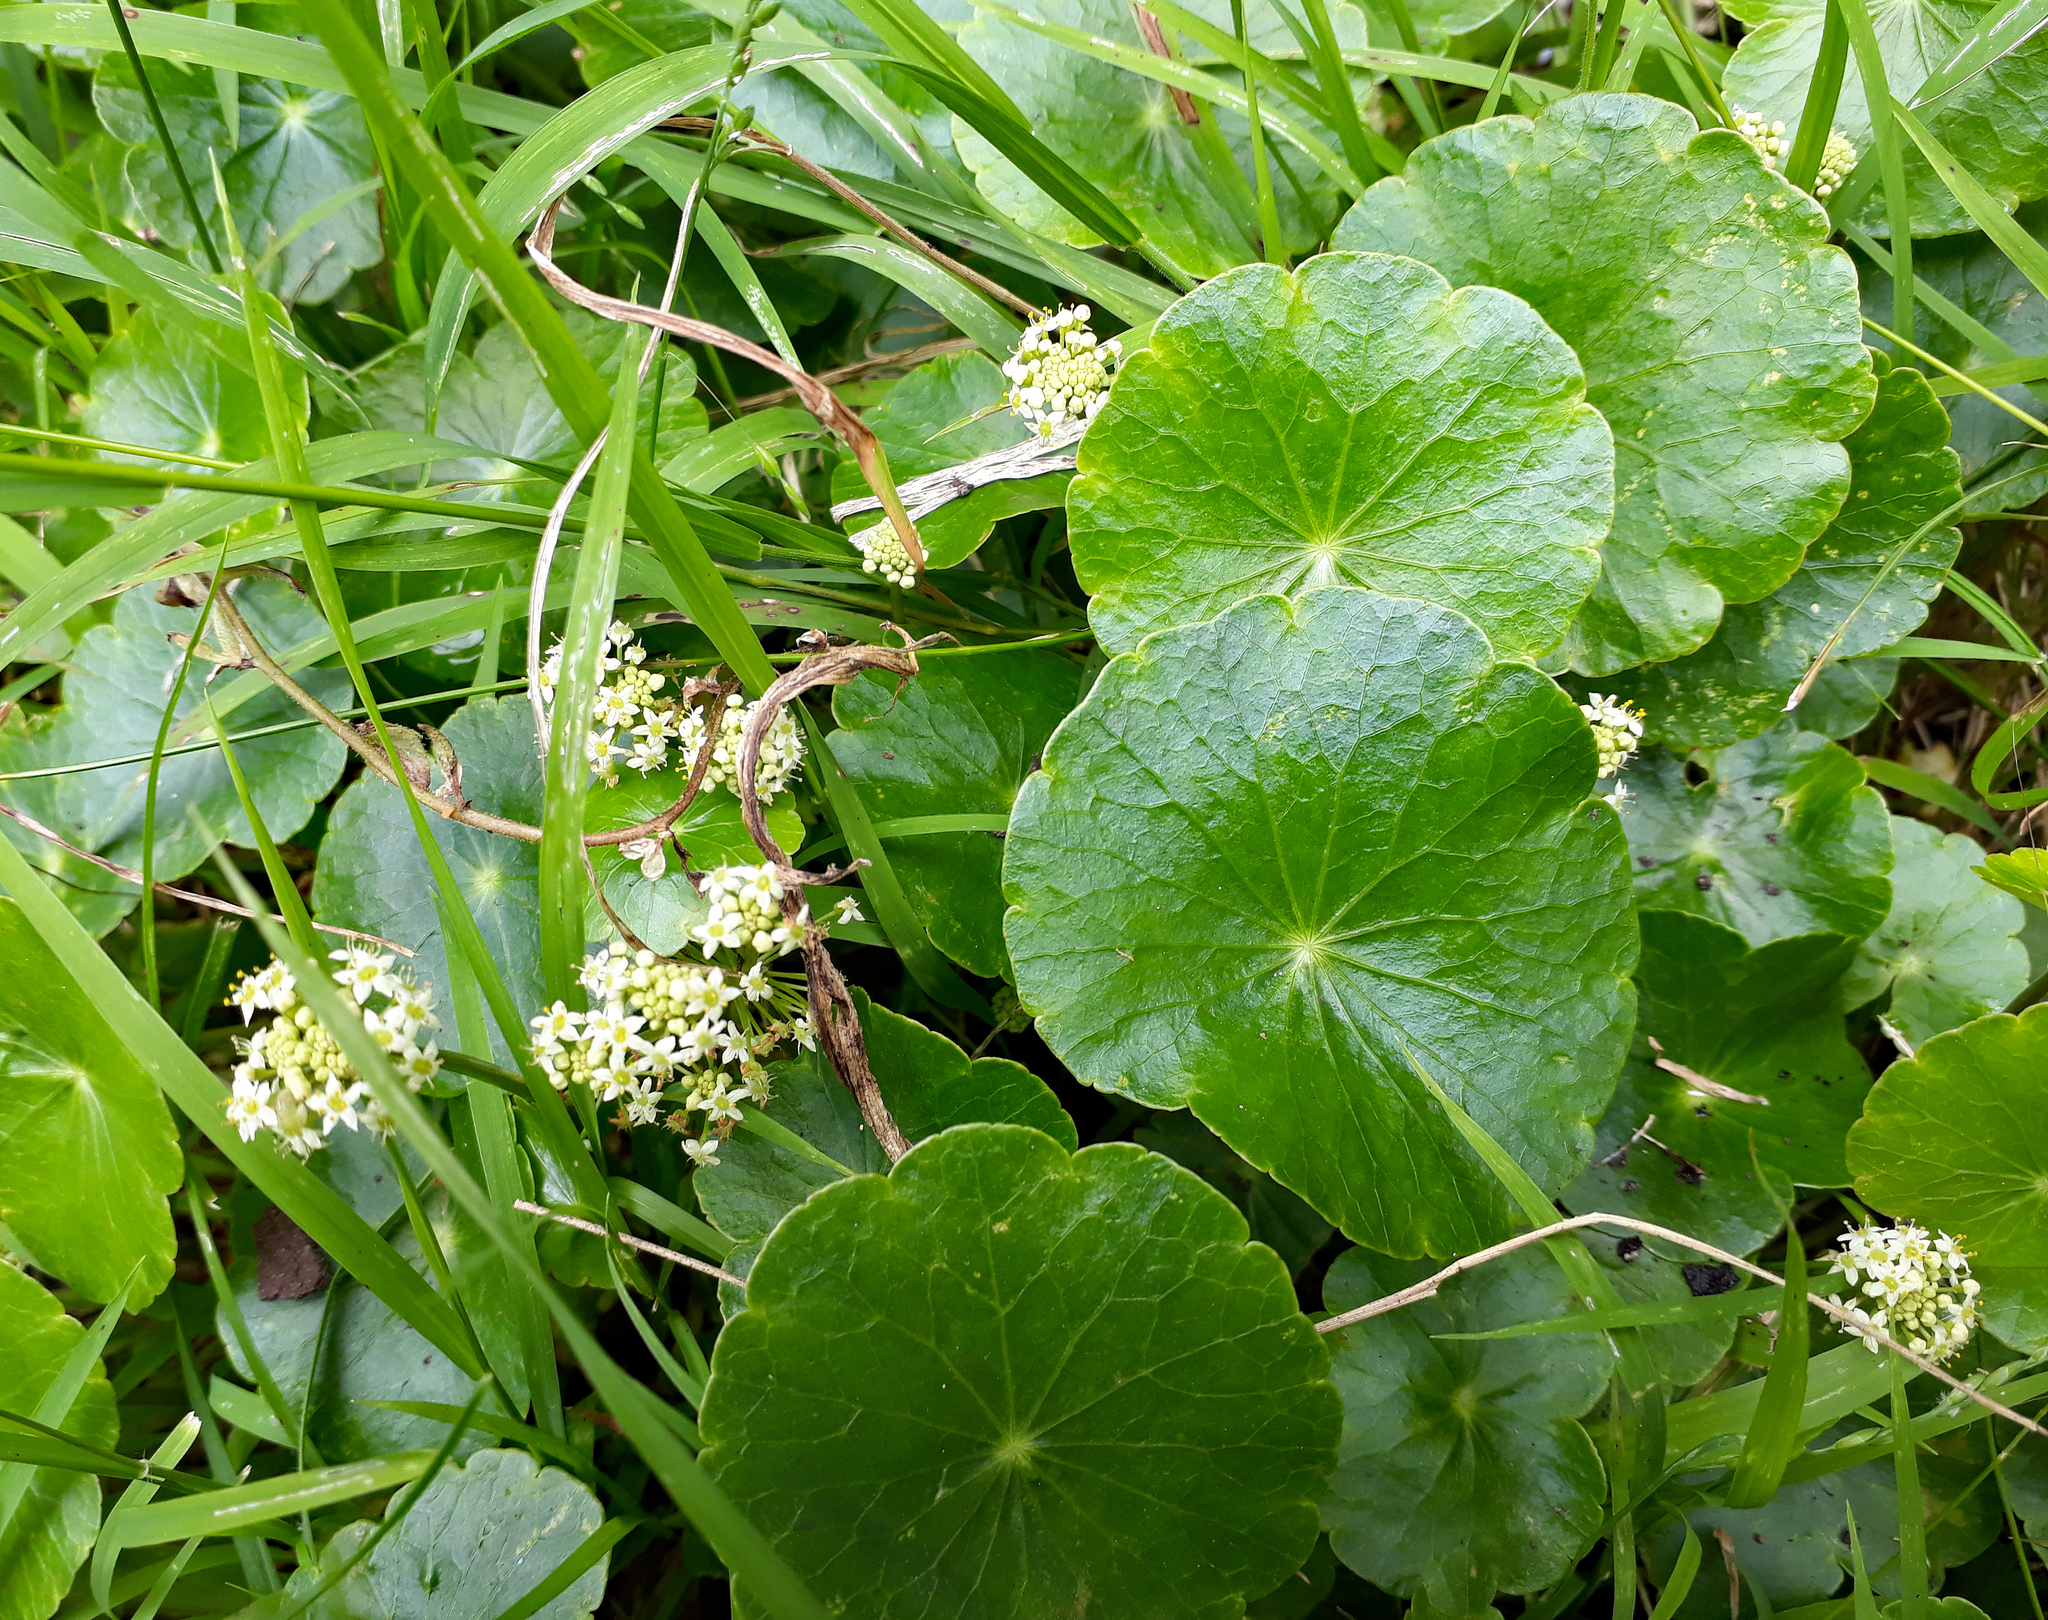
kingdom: Plantae
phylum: Tracheophyta
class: Magnoliopsida
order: Apiales
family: Araliaceae
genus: Hydrocotyle
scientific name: Hydrocotyle bonariensis
